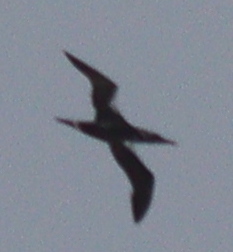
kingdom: Animalia
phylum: Chordata
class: Aves
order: Suliformes
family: Sulidae
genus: Morus
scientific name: Morus bassanus
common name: Northern gannet
